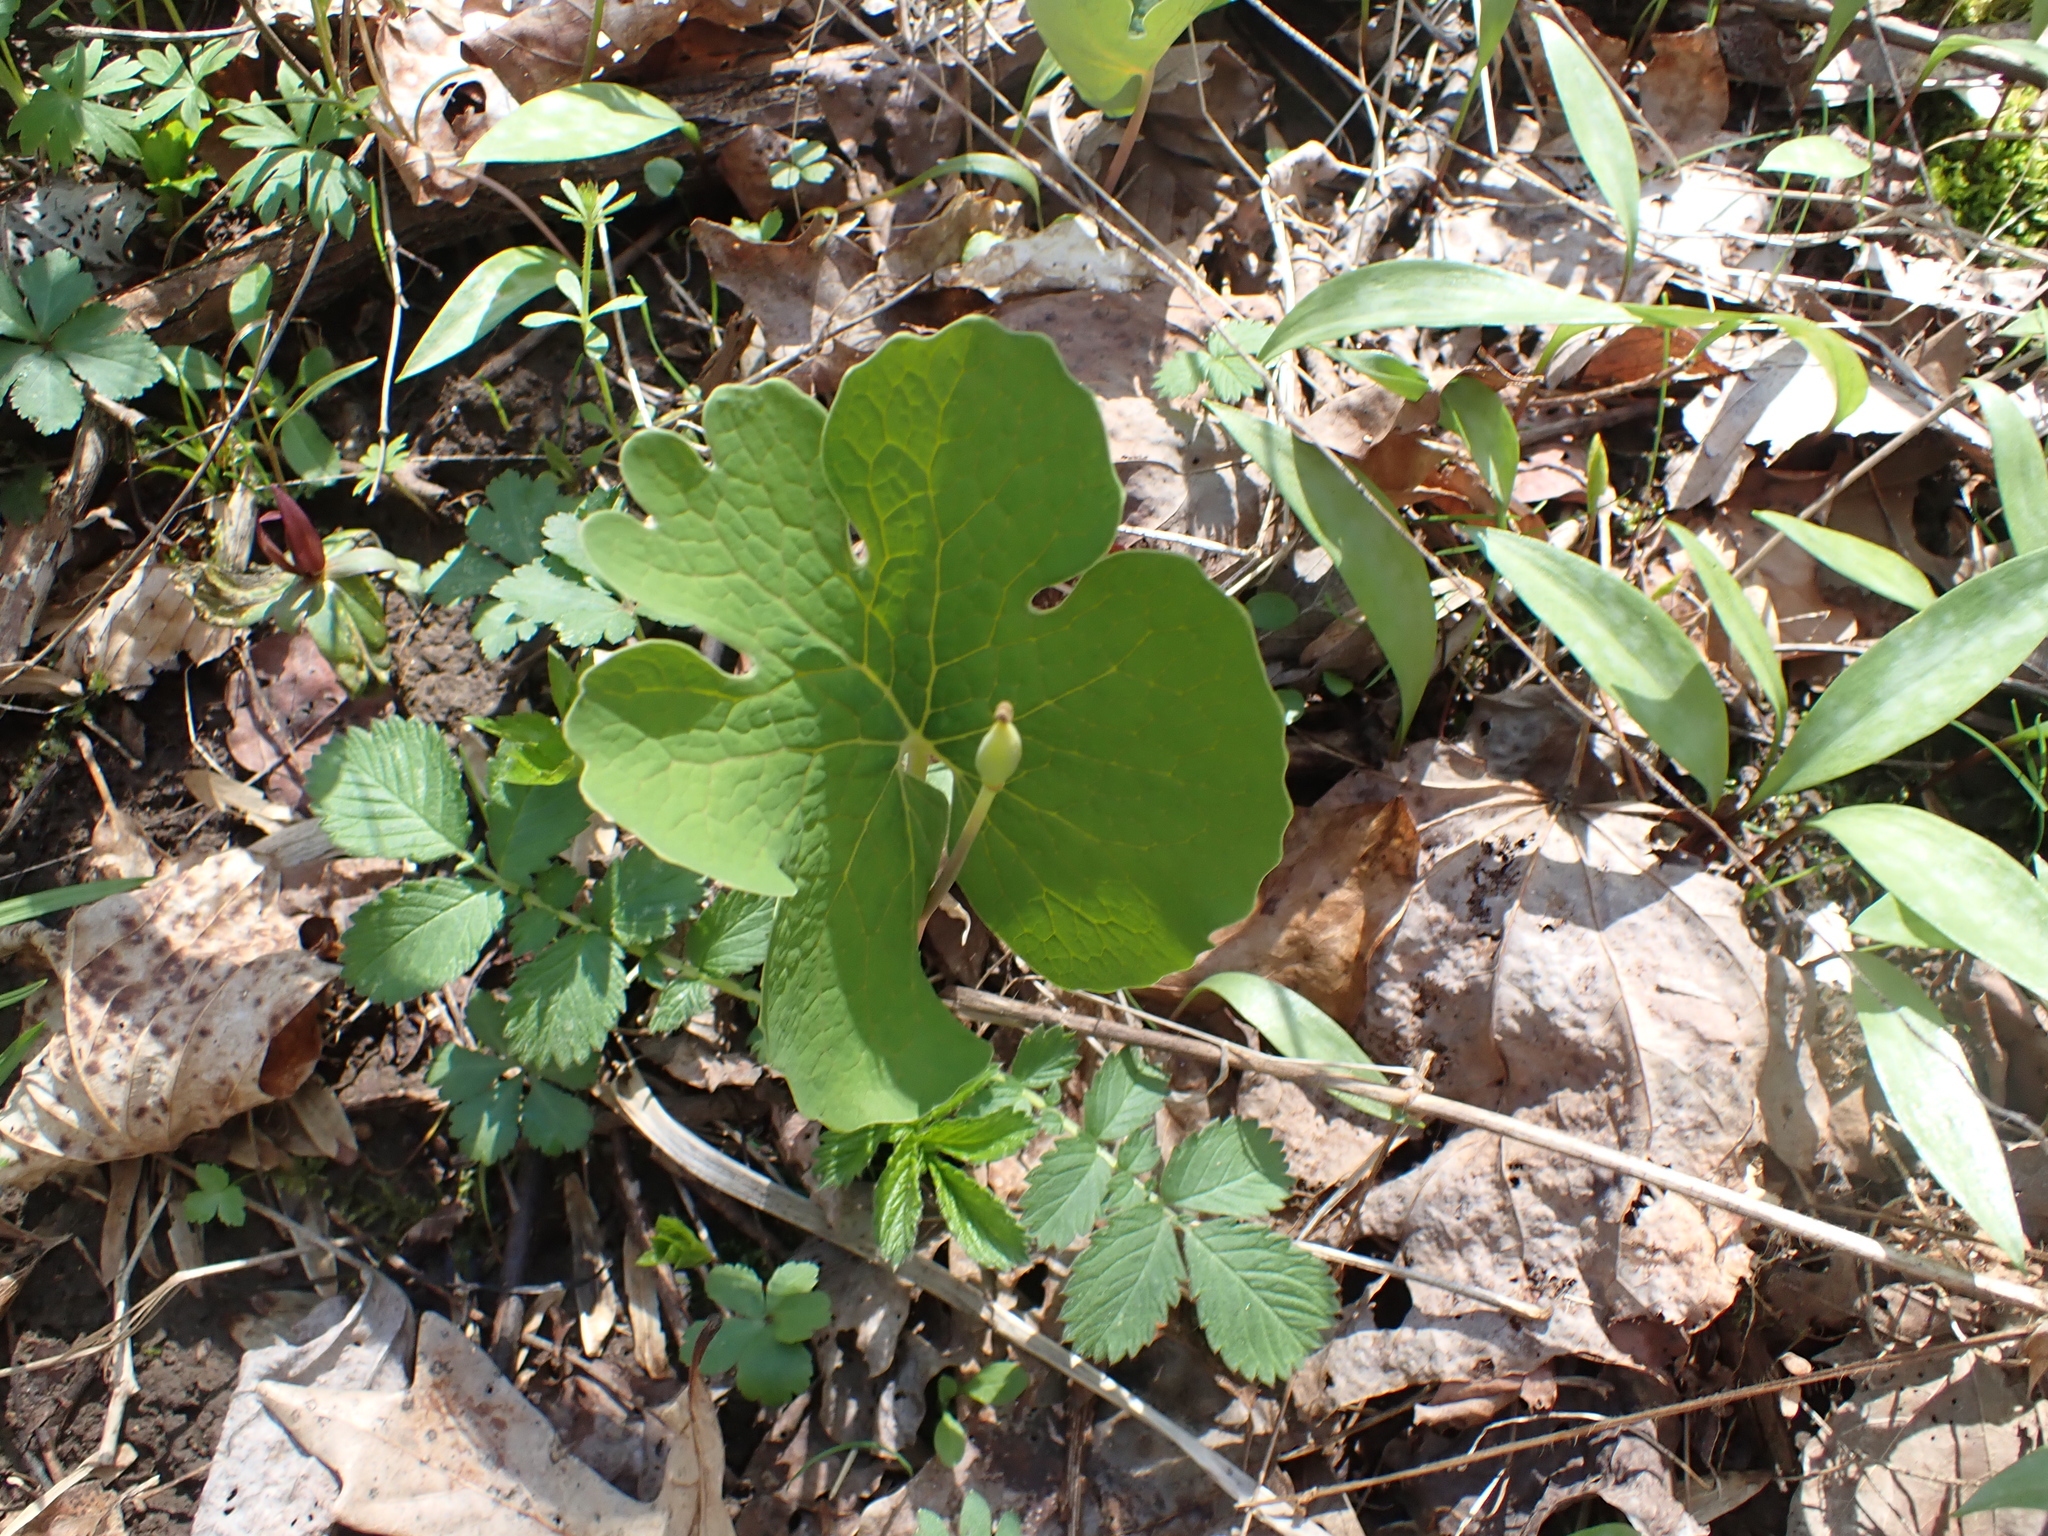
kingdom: Plantae
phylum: Tracheophyta
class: Magnoliopsida
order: Ranunculales
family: Papaveraceae
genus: Sanguinaria
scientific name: Sanguinaria canadensis
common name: Bloodroot
